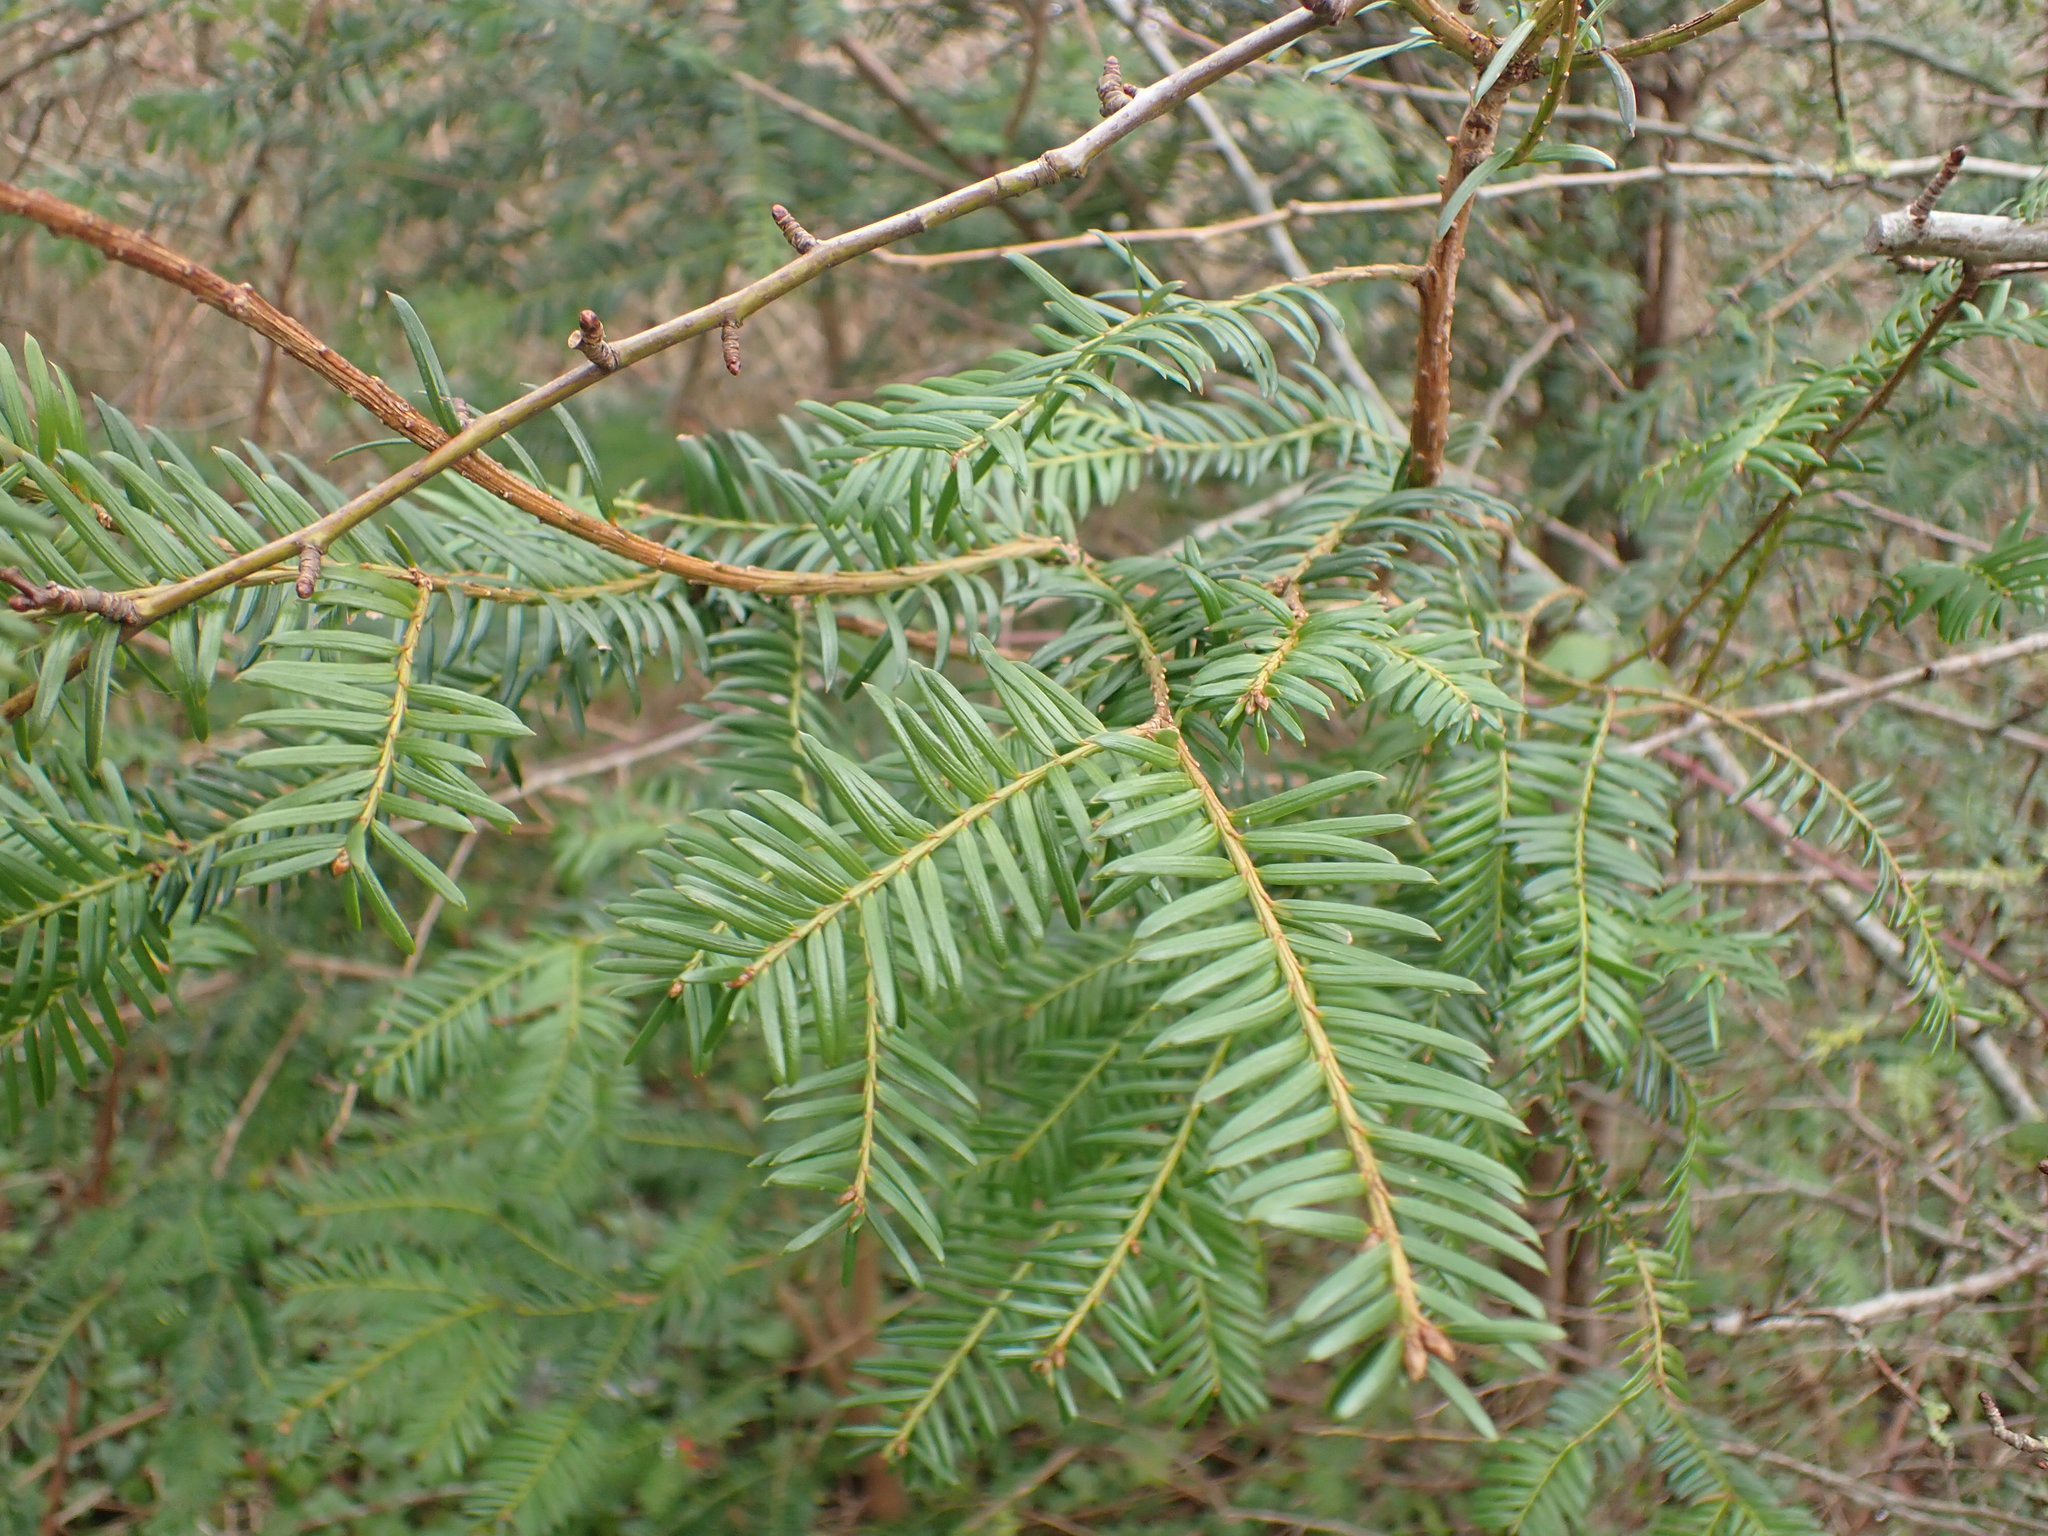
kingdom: Plantae
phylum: Tracheophyta
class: Pinopsida
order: Pinales
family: Taxaceae
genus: Taxus
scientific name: Taxus baccata
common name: Yew
